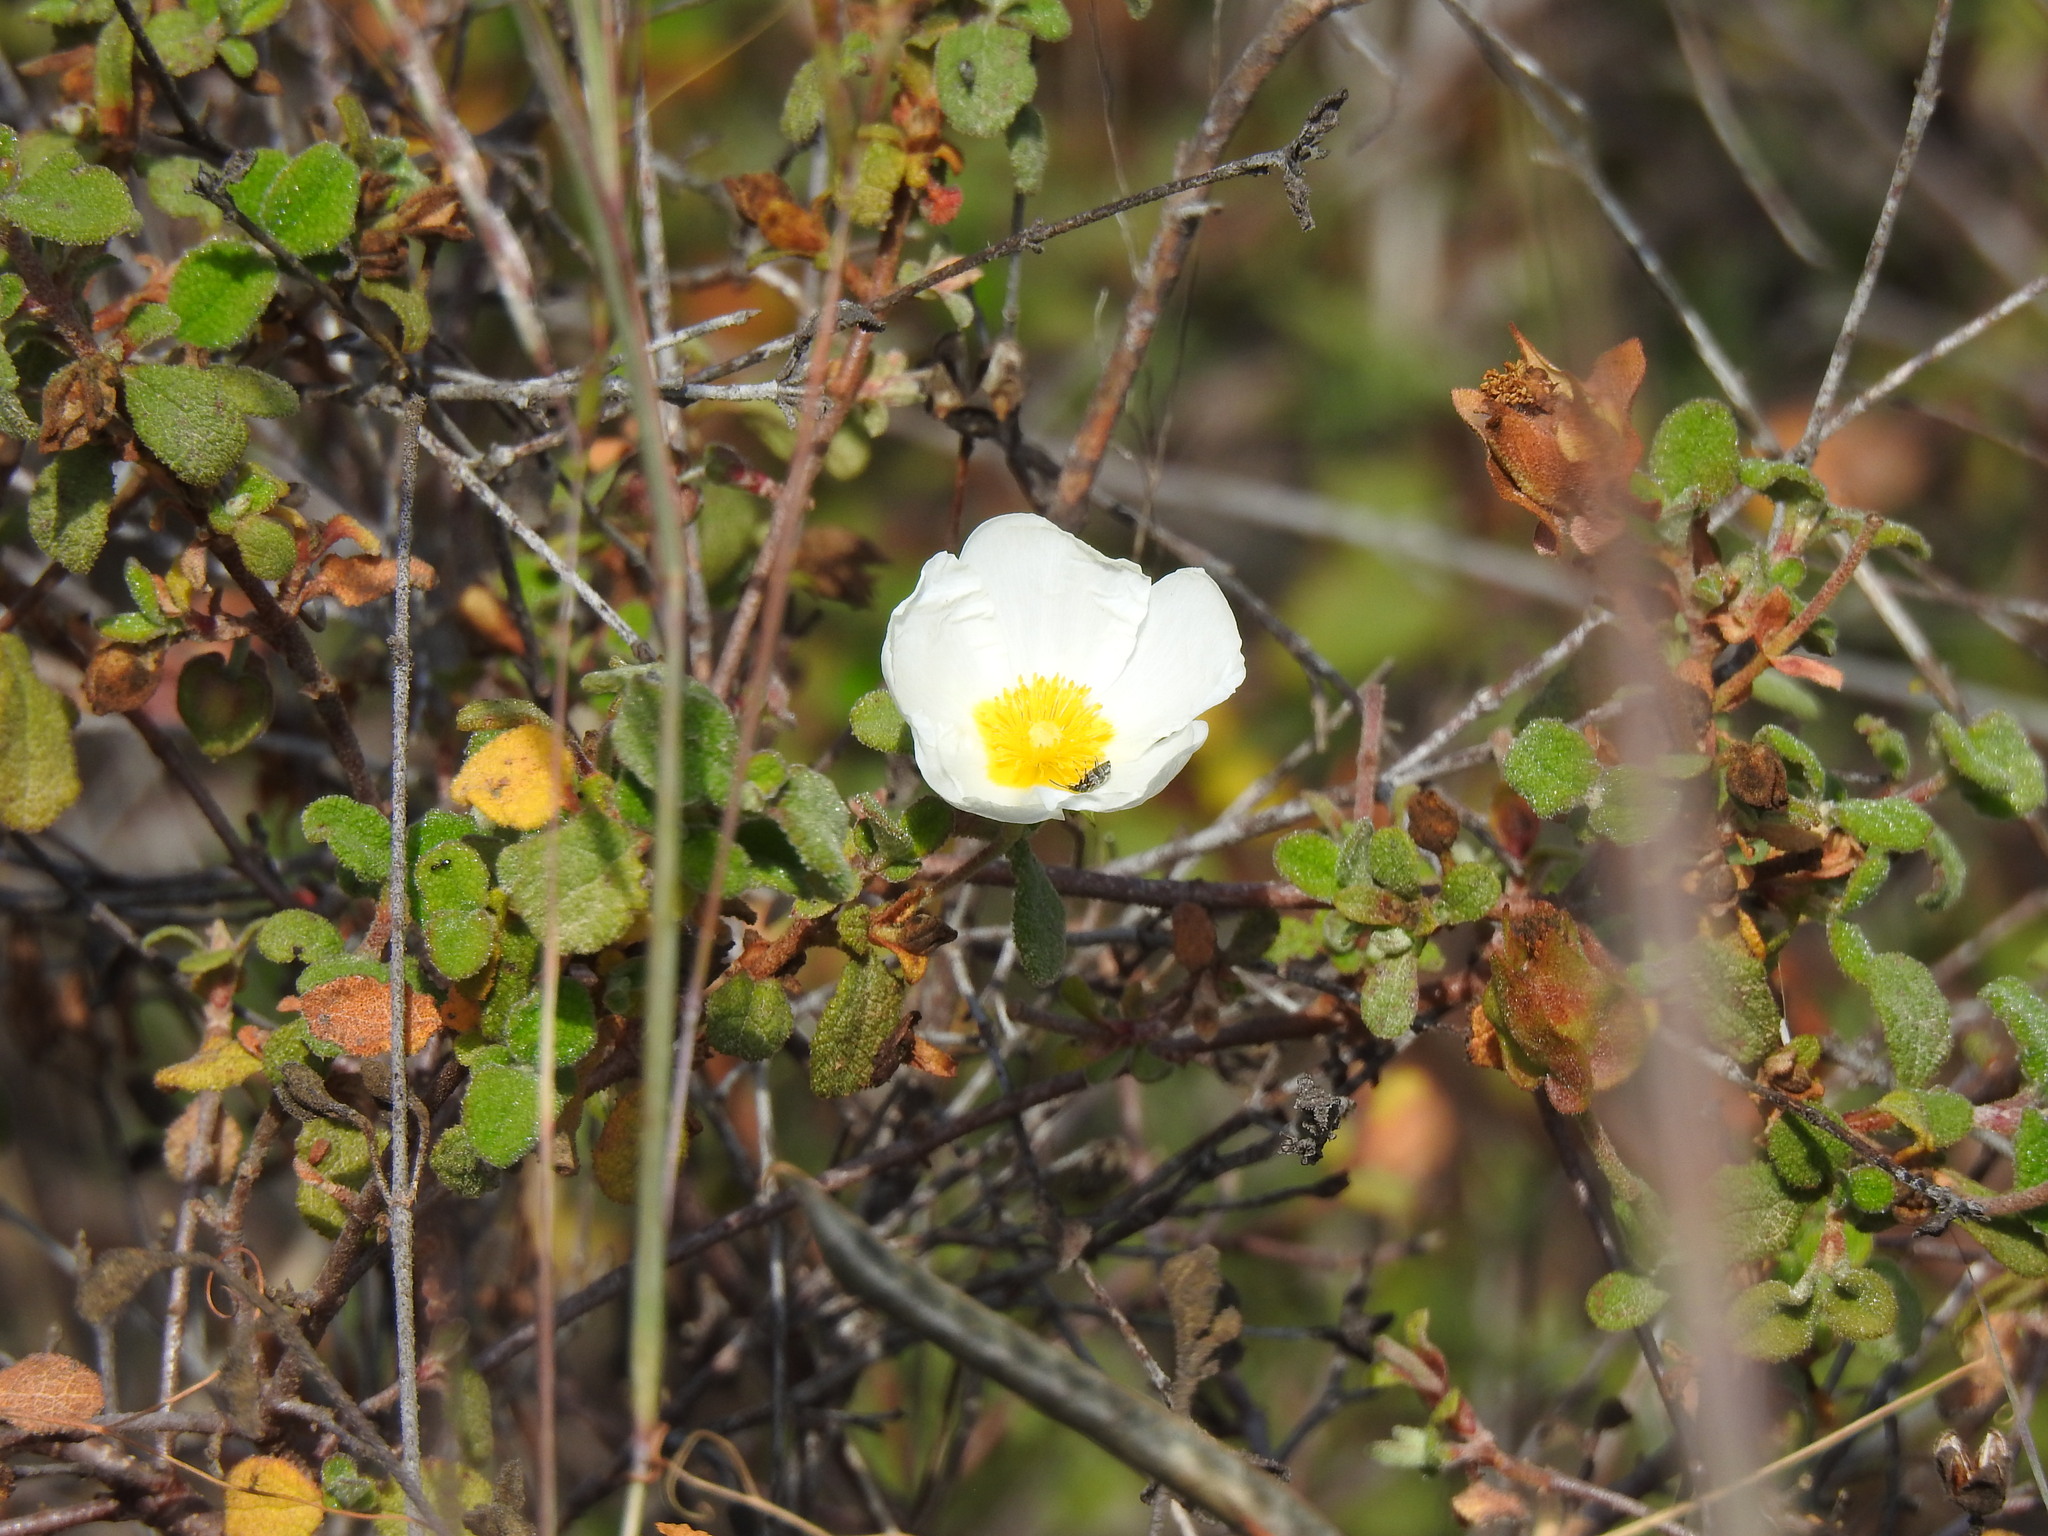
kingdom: Plantae
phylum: Tracheophyta
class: Magnoliopsida
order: Malvales
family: Cistaceae
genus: Cistus
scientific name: Cistus salviifolius
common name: Salvia cistus
